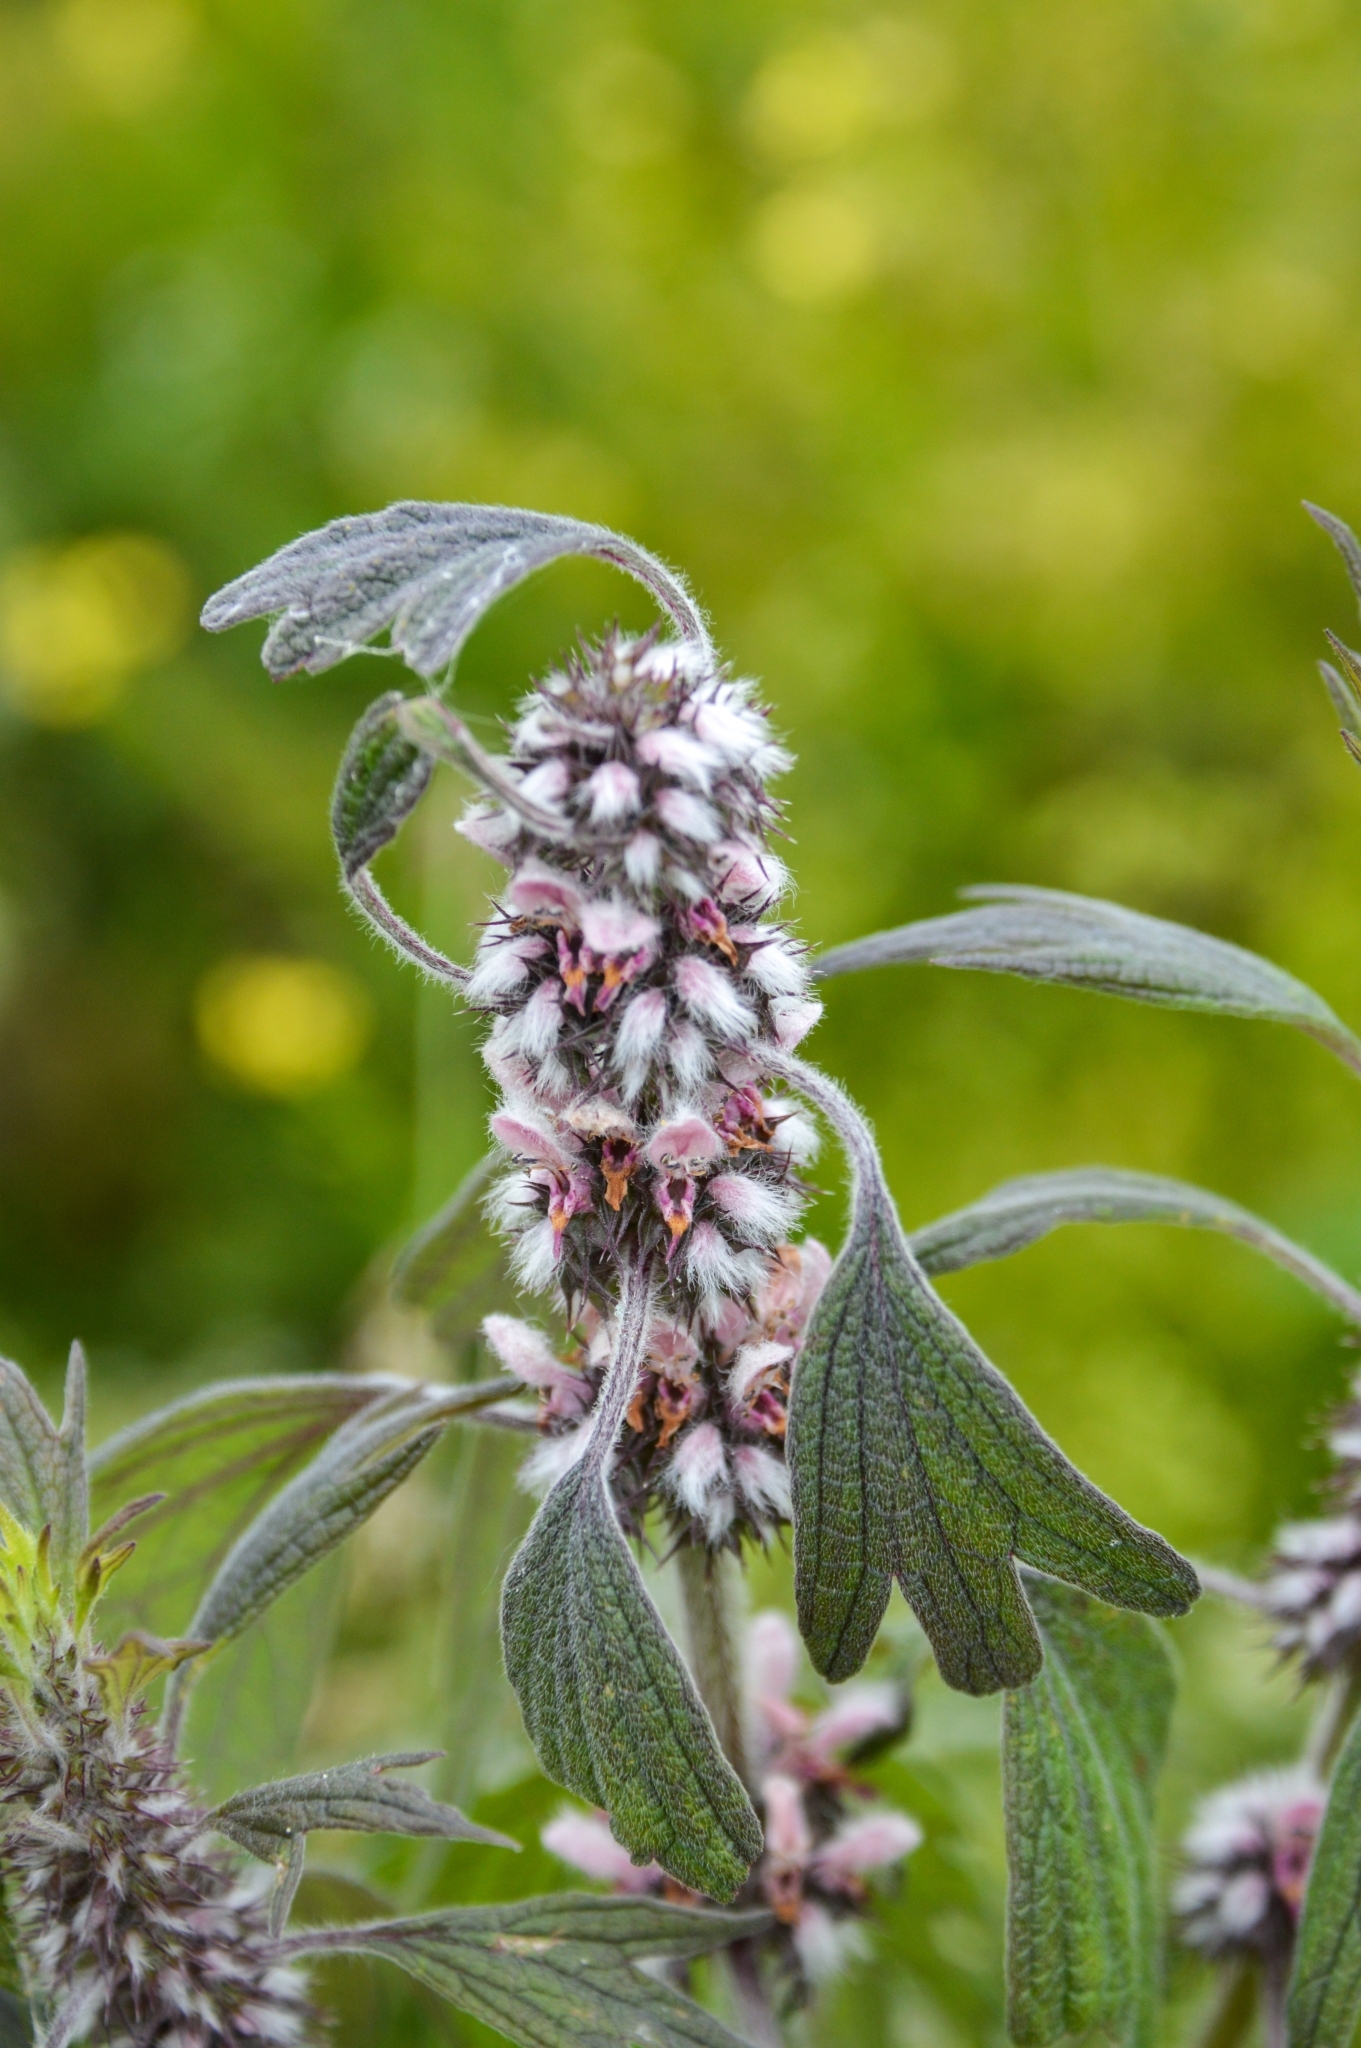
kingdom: Plantae
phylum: Tracheophyta
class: Magnoliopsida
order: Lamiales
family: Lamiaceae
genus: Leonurus
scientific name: Leonurus quinquelobatus
